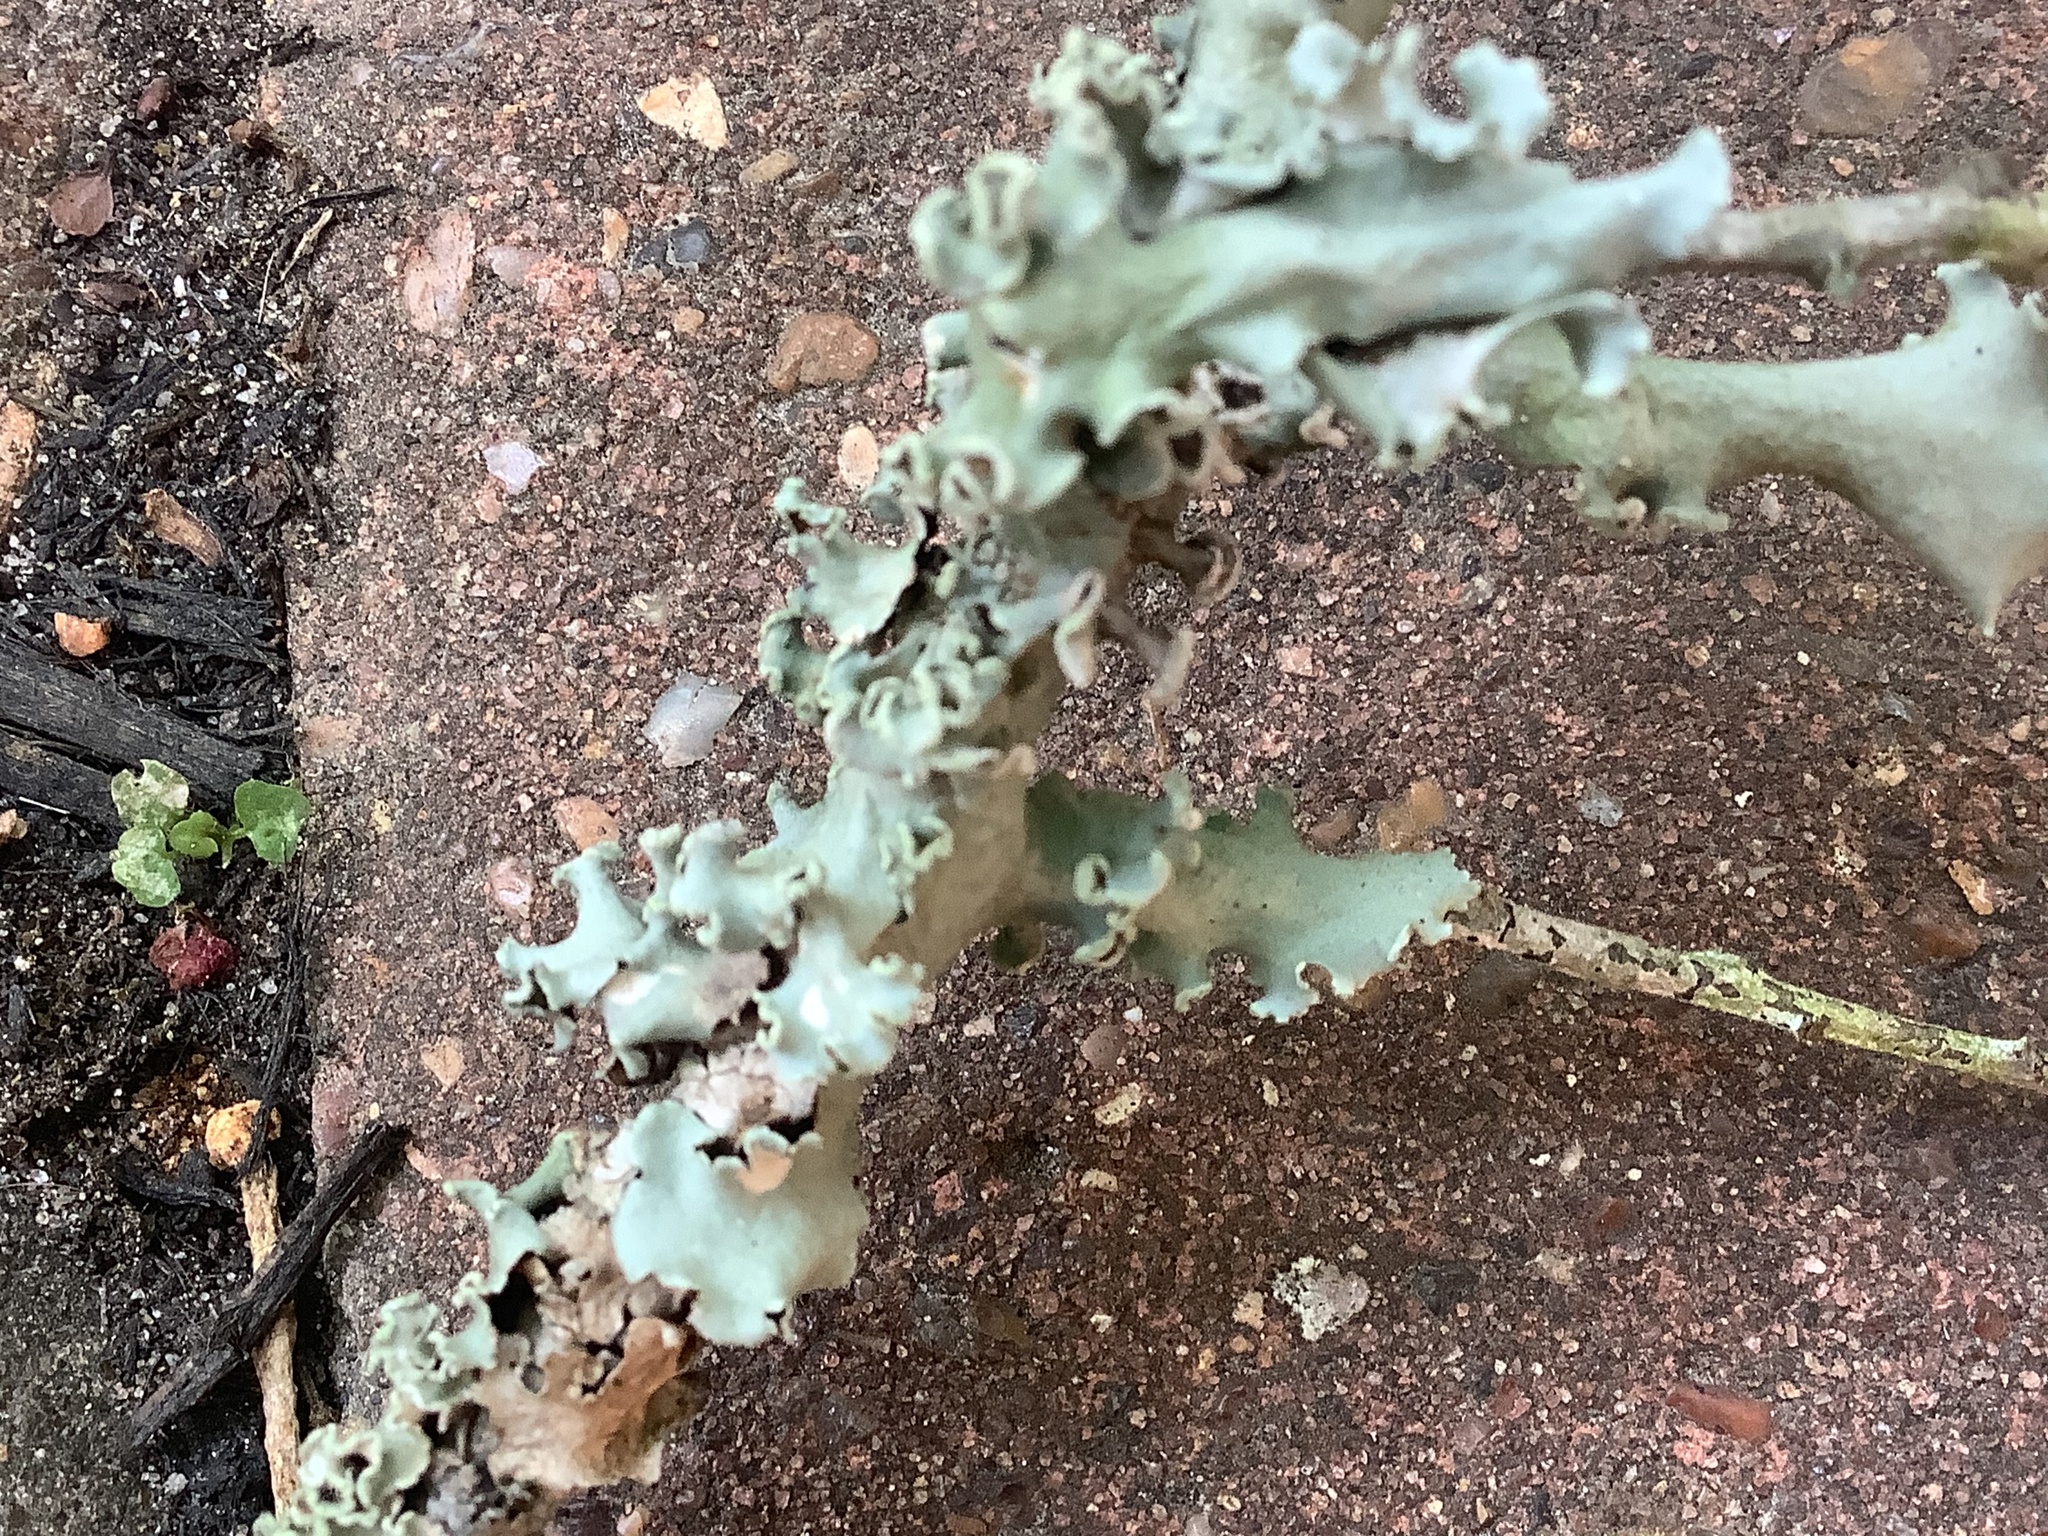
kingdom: Fungi
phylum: Ascomycota
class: Lecanoromycetes
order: Lecanorales
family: Parmeliaceae
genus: Parmotrema
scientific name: Parmotrema hypotropum
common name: Powdered ruffle lichen
